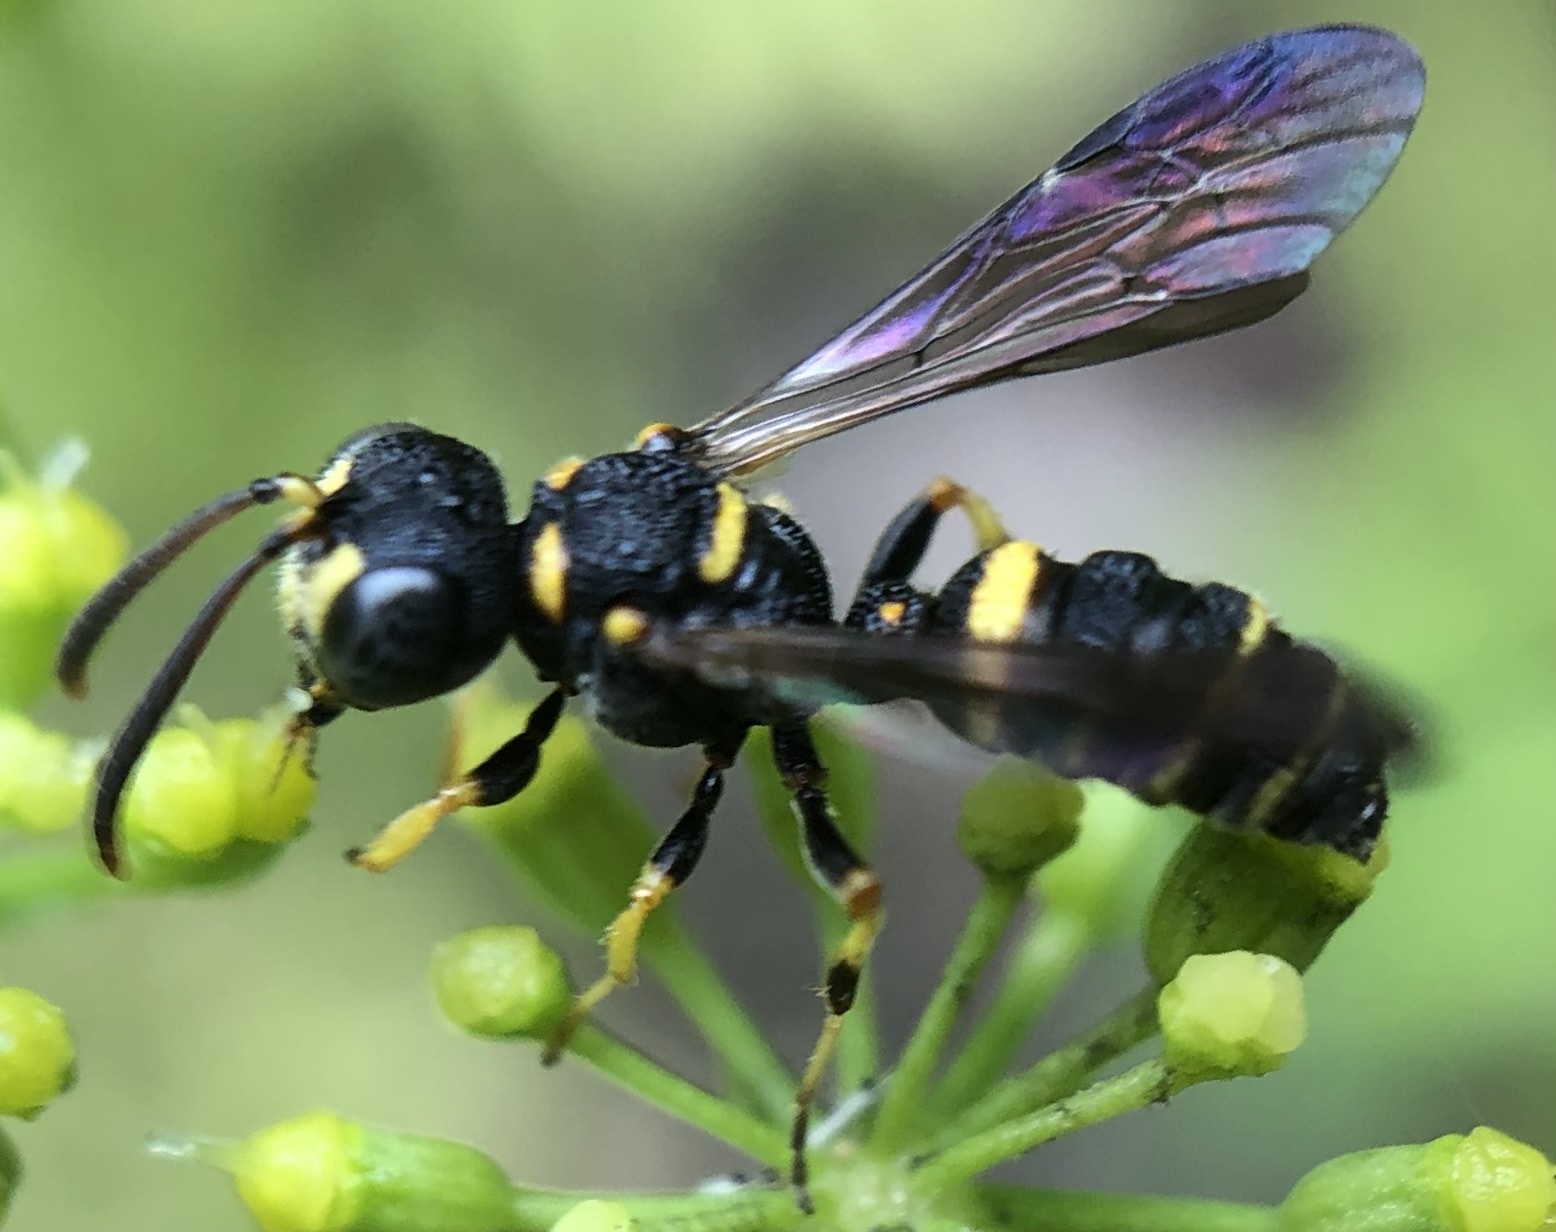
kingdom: Animalia
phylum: Arthropoda
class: Insecta
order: Hymenoptera
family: Crabronidae
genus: Cerceris
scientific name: Cerceris kennicottii
